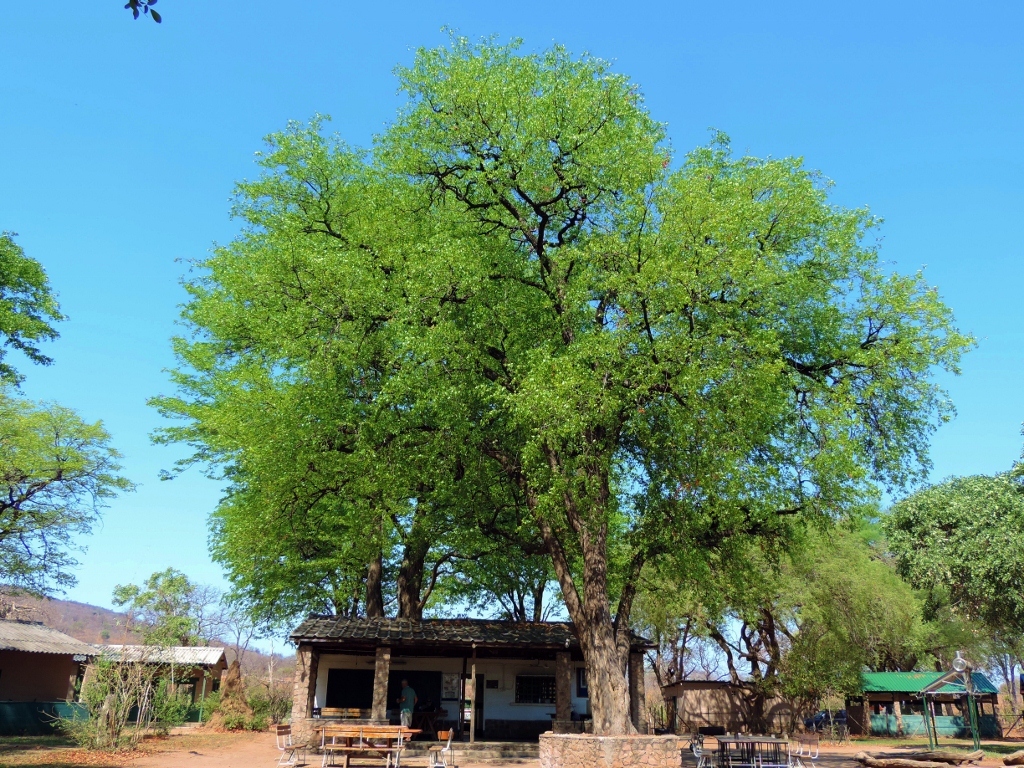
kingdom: Plantae
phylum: Tracheophyta
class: Magnoliopsida
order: Fabales
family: Fabaceae
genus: Colophospermum
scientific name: Colophospermum mopane
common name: Mopane
